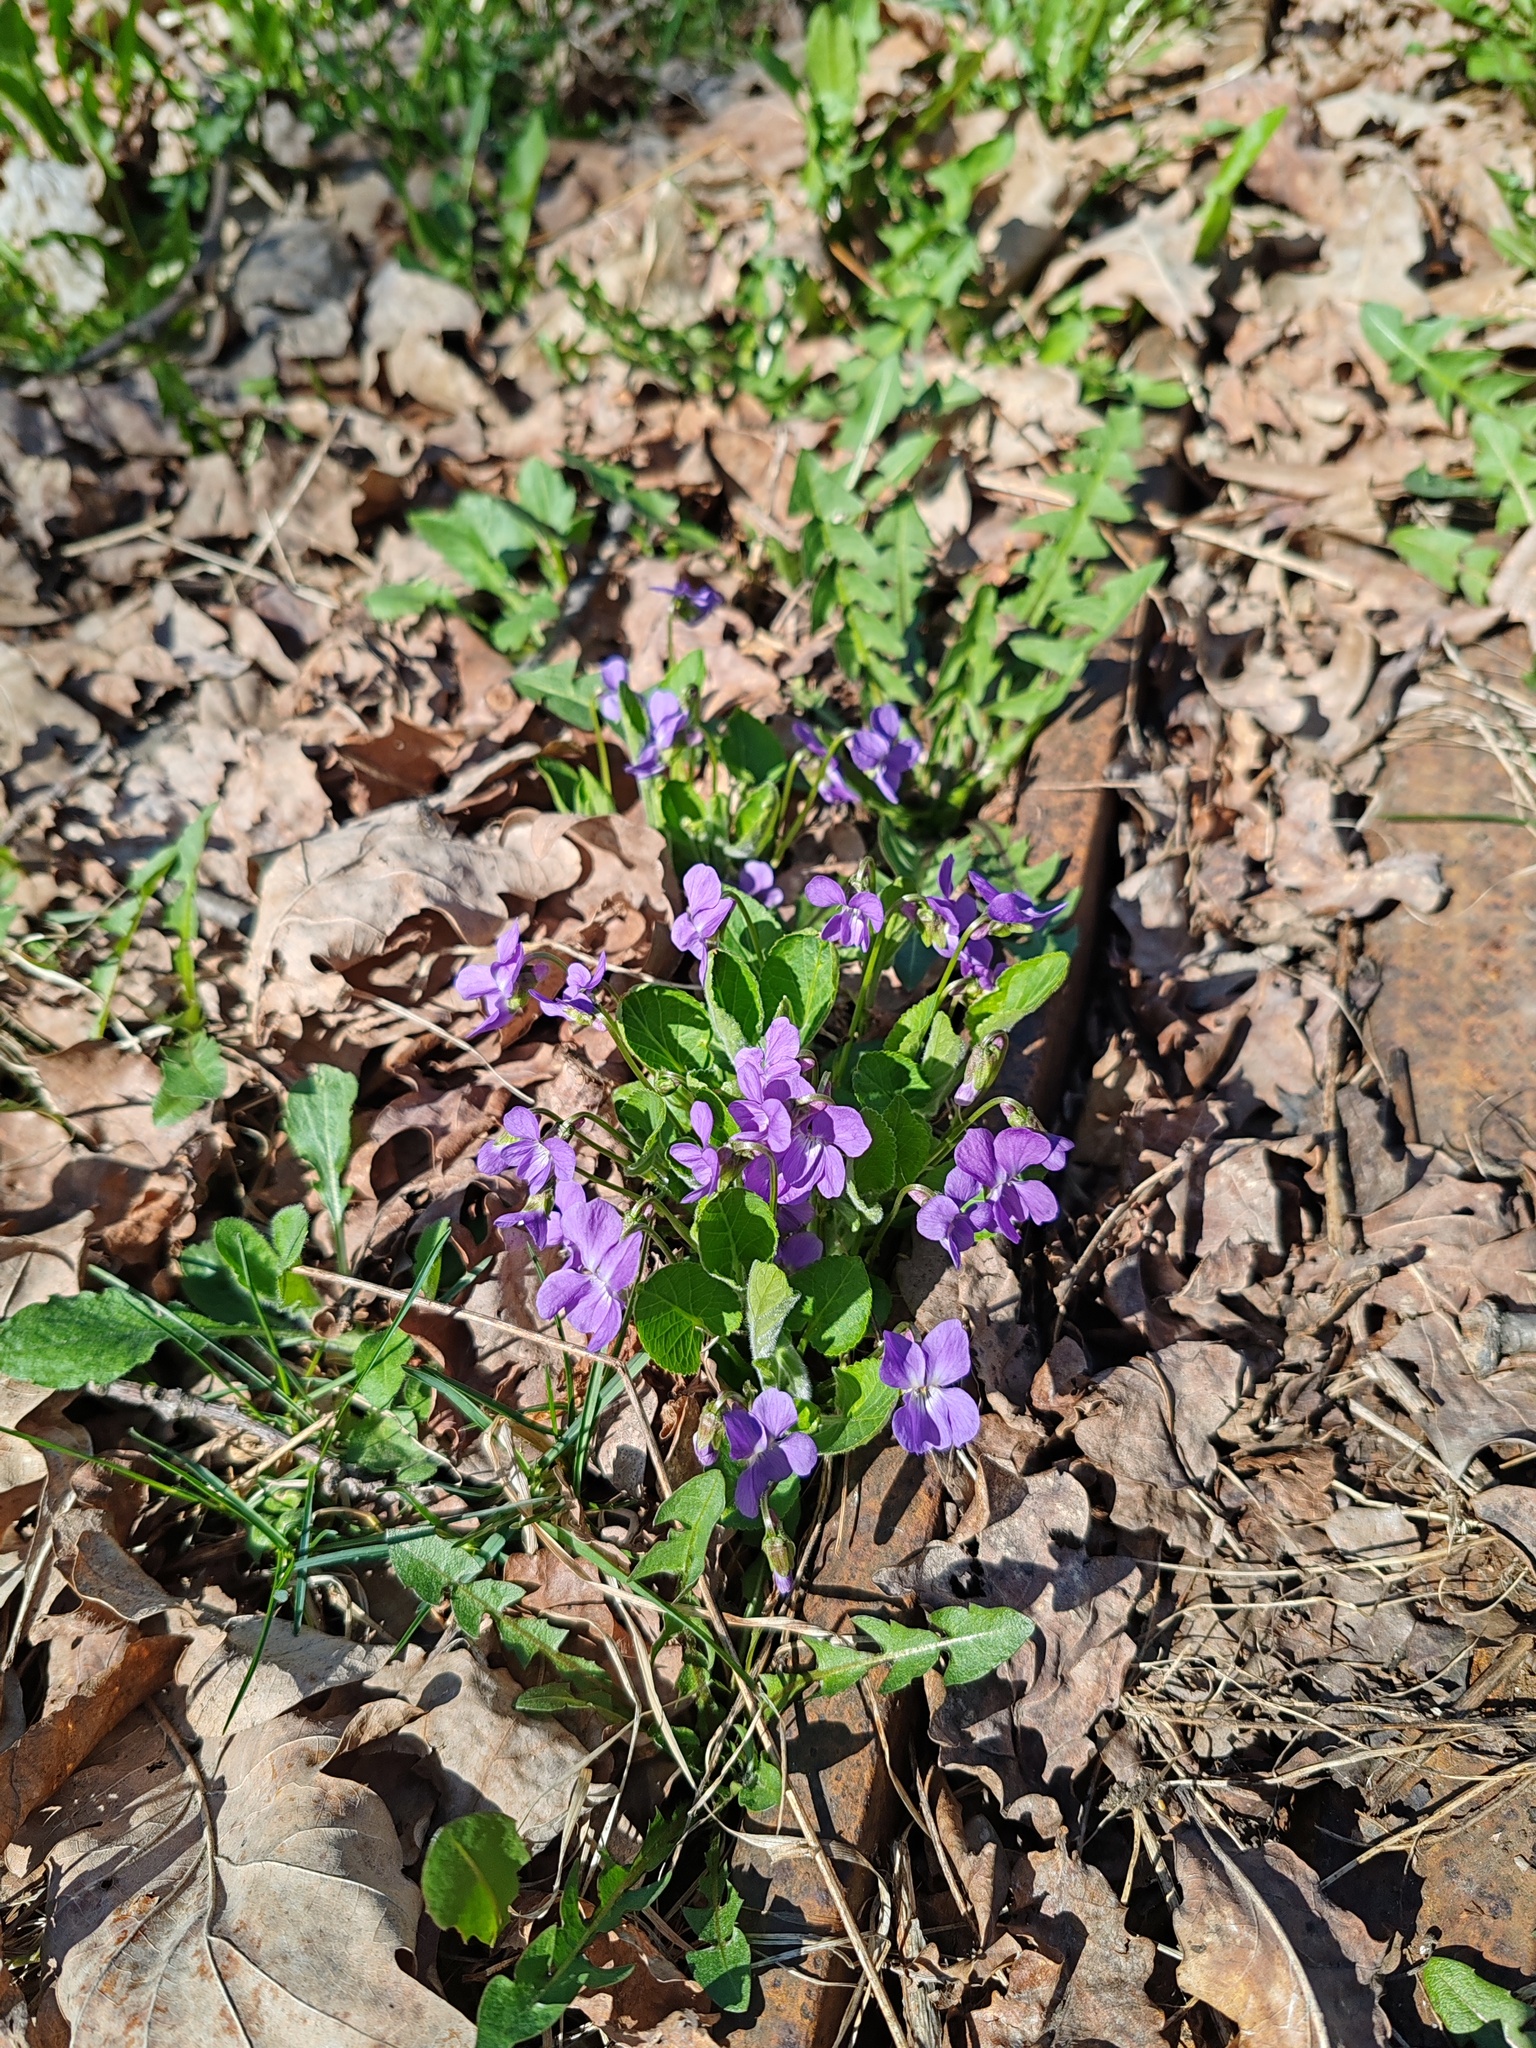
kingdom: Plantae
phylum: Tracheophyta
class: Magnoliopsida
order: Malpighiales
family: Violaceae
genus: Viola
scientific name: Viola hirta
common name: Hairy violet
